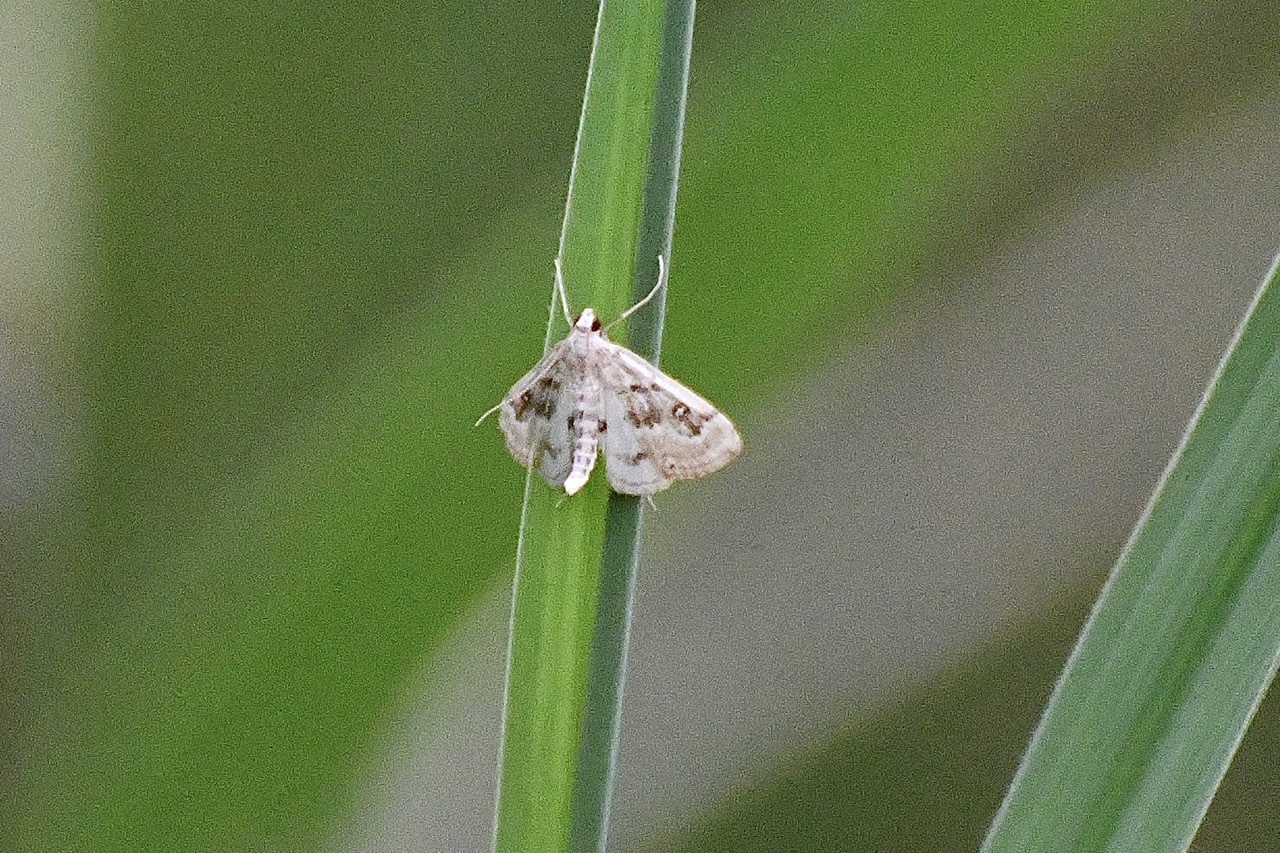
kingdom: Animalia
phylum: Arthropoda
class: Insecta
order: Lepidoptera
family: Crambidae
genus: Parapoynx
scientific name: Parapoynx stratiotata
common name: Ringed china-mark
